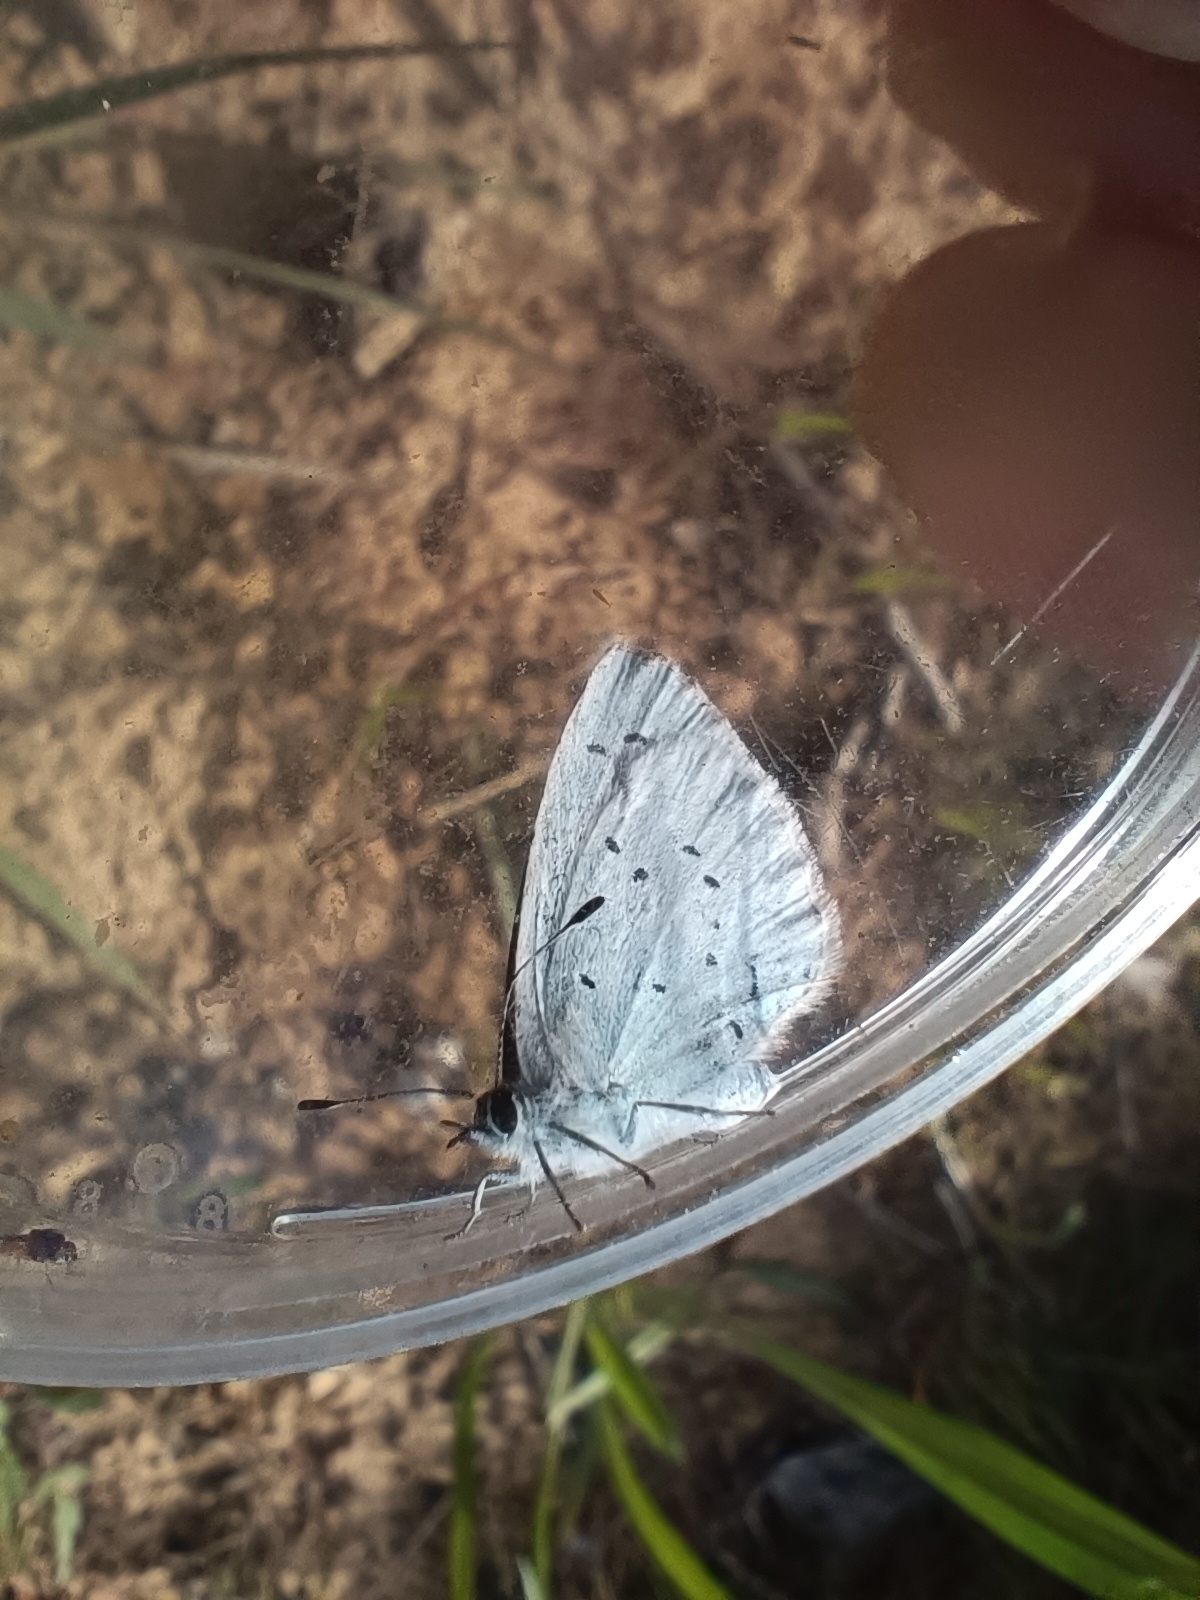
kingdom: Animalia
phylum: Arthropoda
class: Insecta
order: Lepidoptera
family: Lycaenidae
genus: Celastrina
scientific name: Celastrina argiolus
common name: Holly blue
